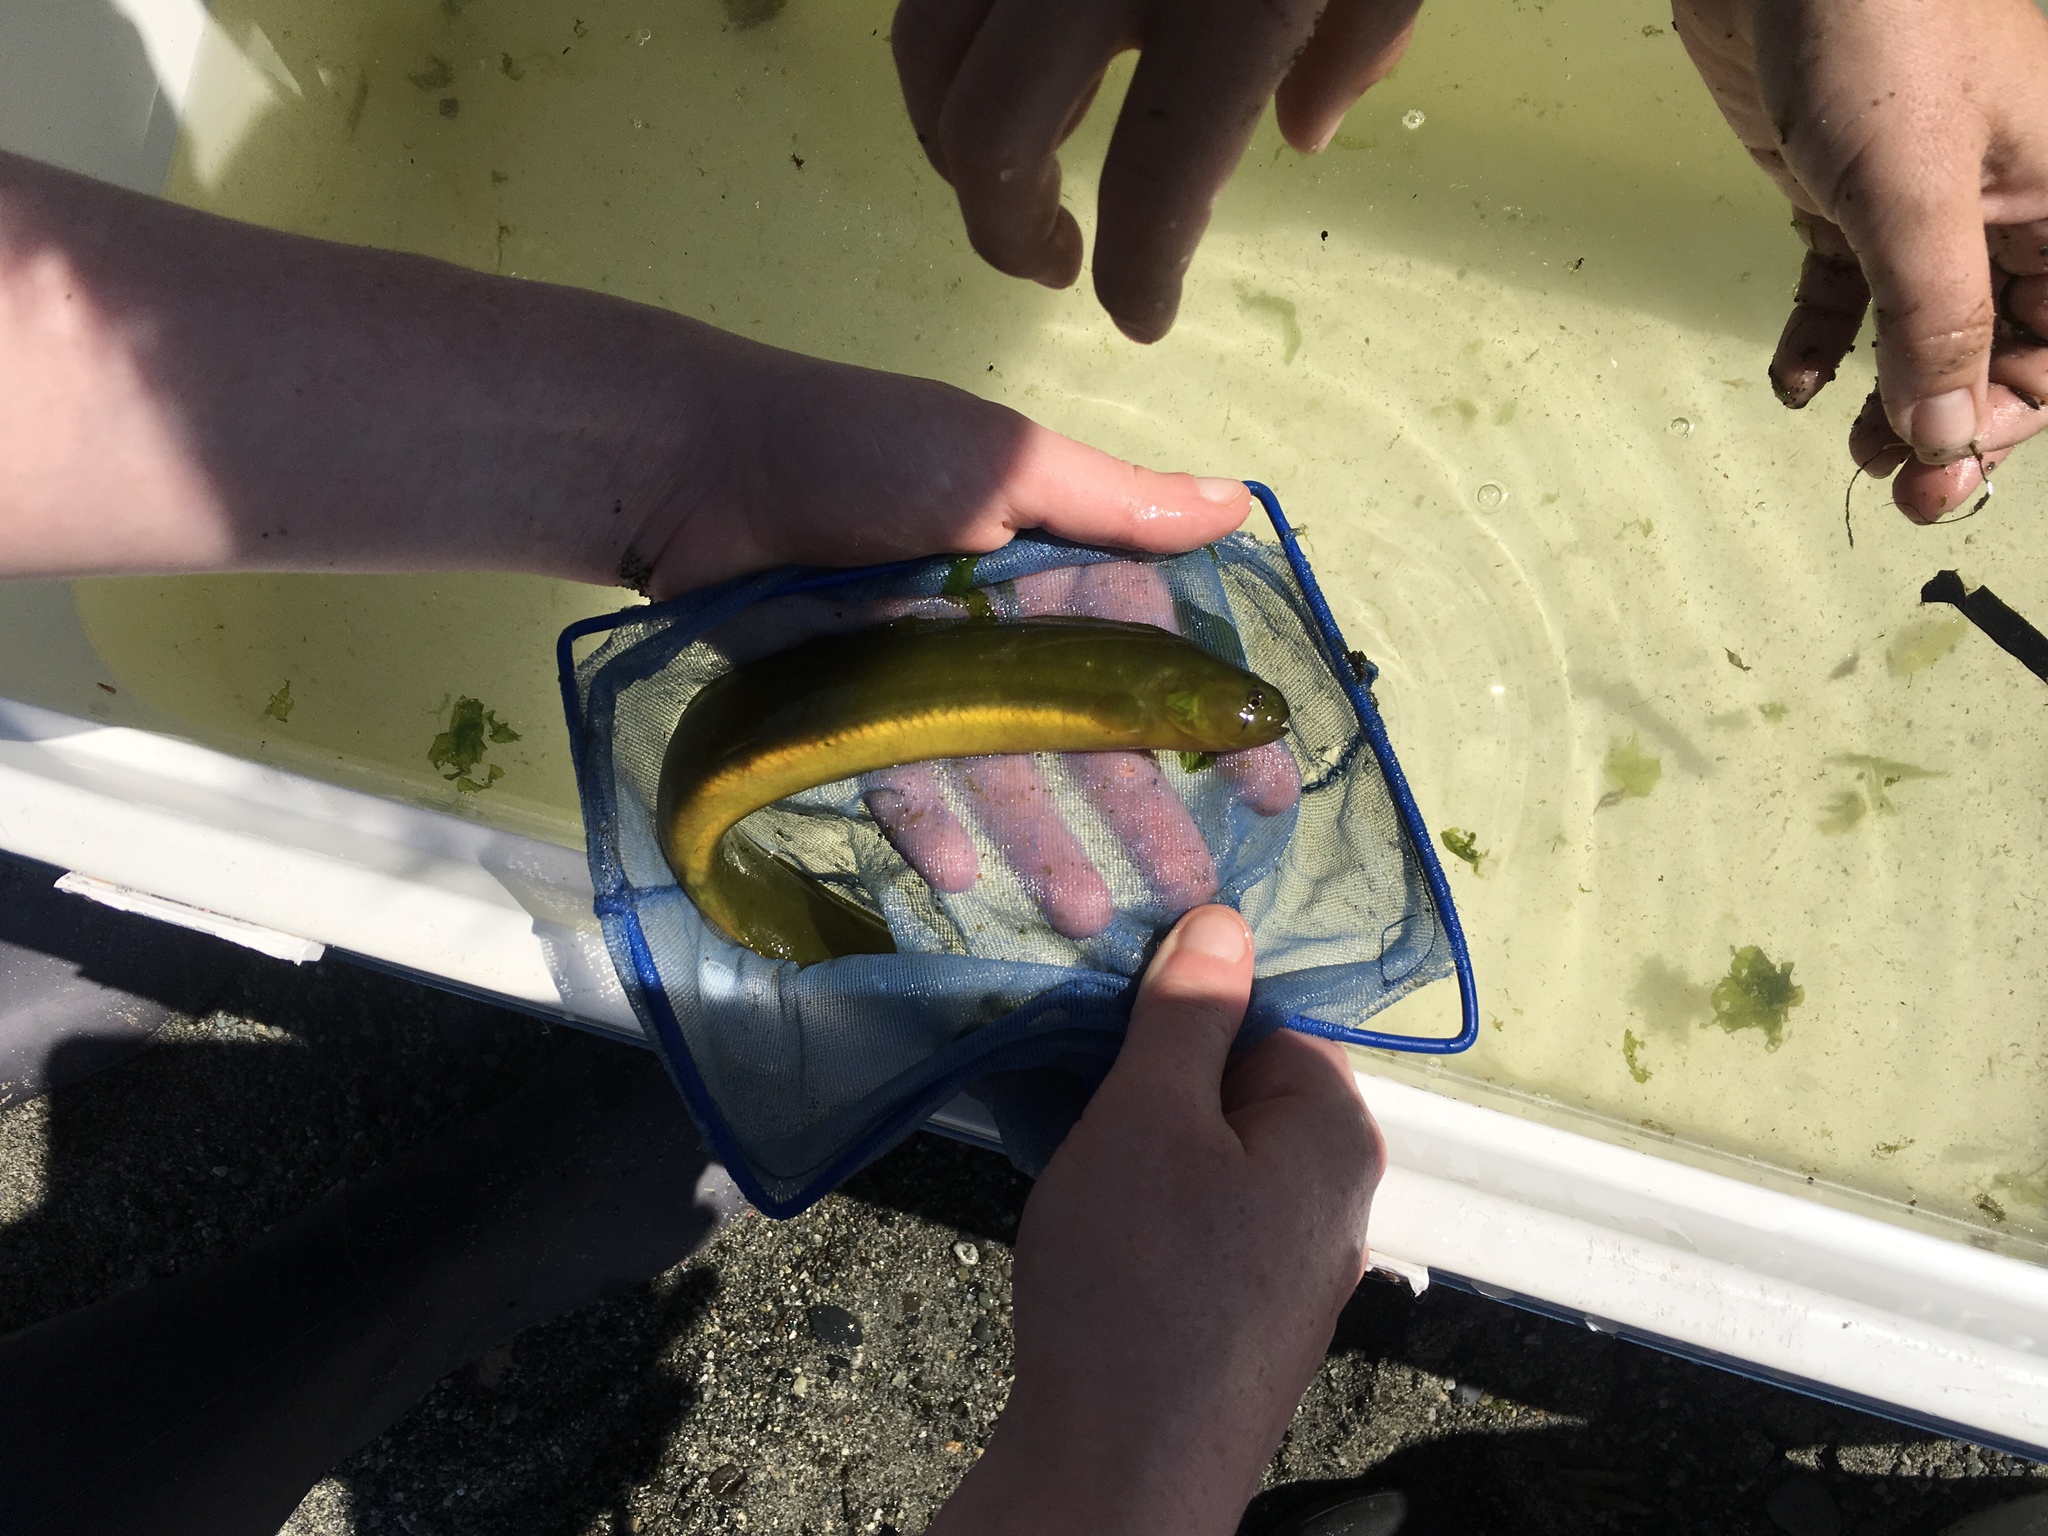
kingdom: Animalia
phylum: Chordata
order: Perciformes
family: Pholidae
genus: Apodichthys
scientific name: Apodichthys flavidus
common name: Penpoint gunnel
